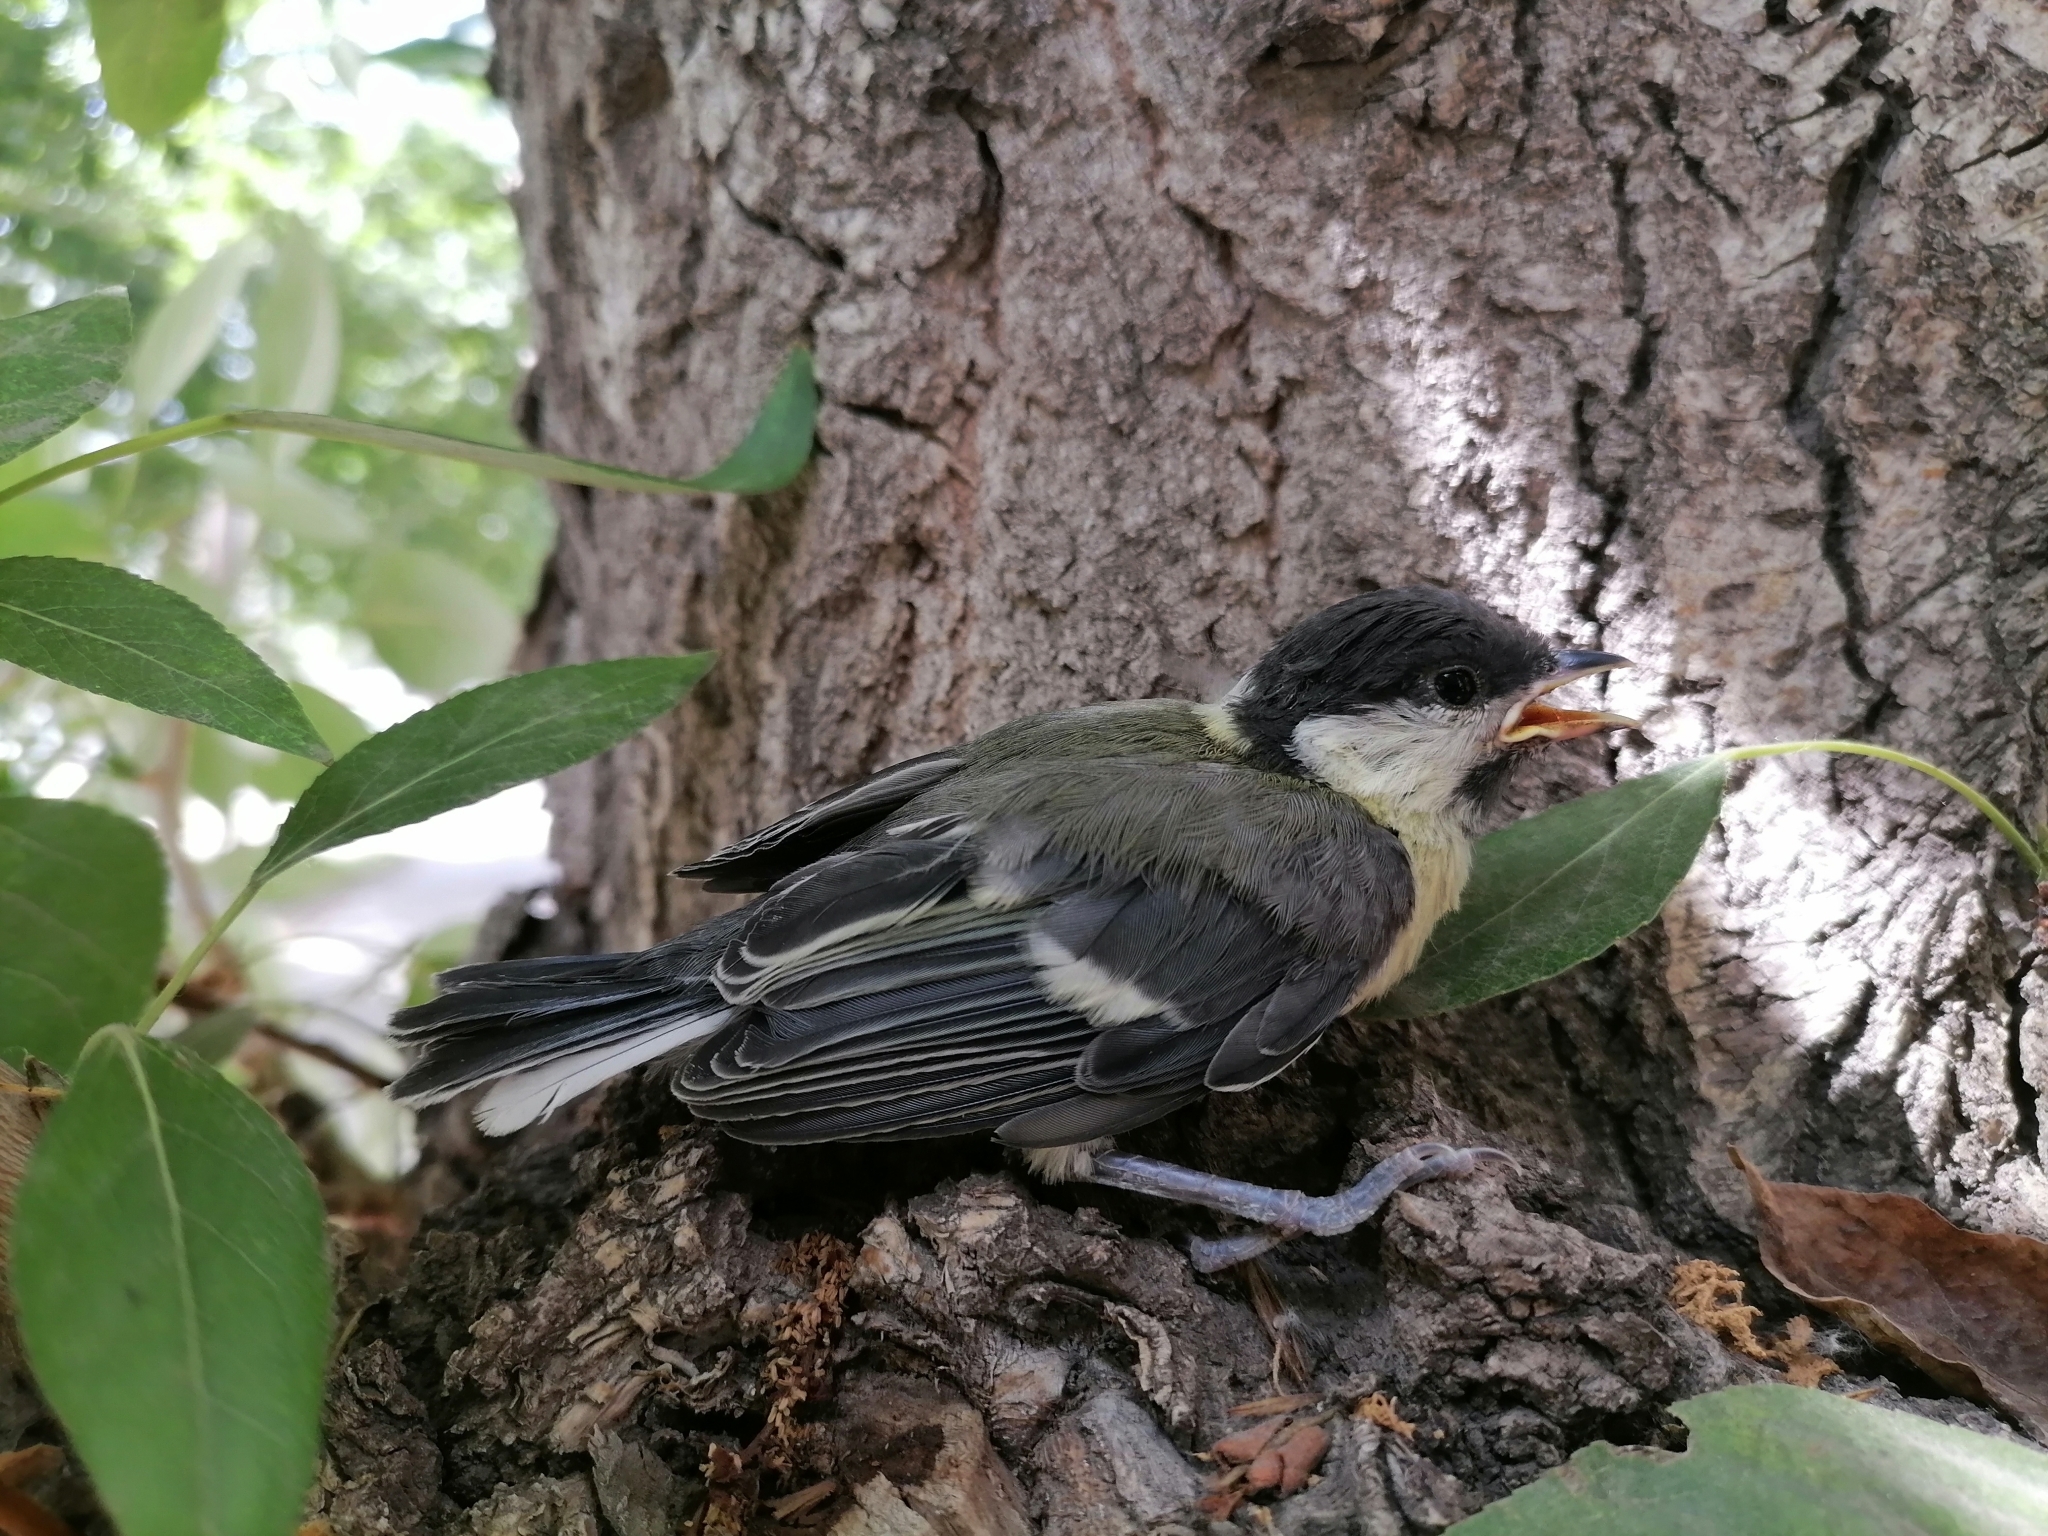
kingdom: Animalia
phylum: Chordata
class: Aves
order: Passeriformes
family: Paridae
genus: Parus
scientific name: Parus major
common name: Great tit
